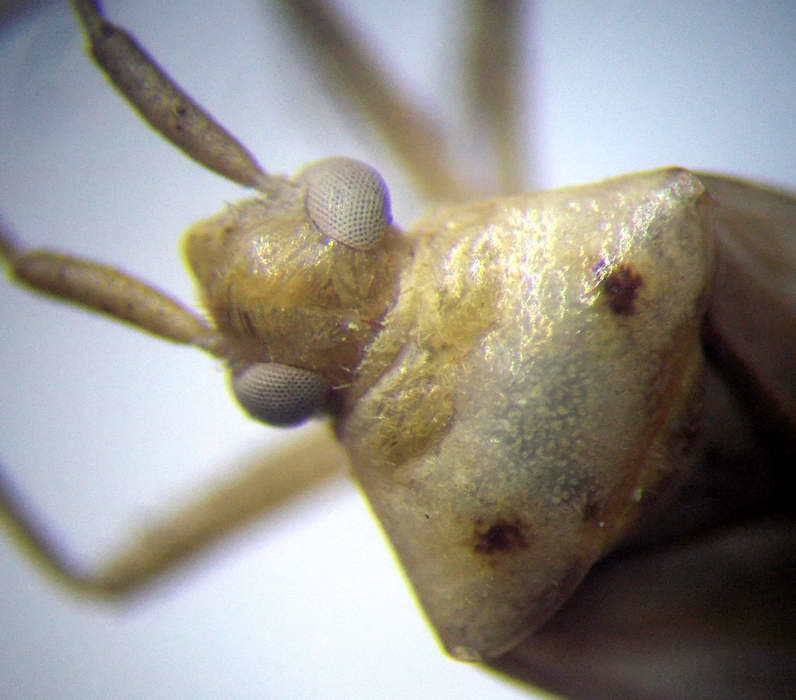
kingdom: Animalia
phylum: Arthropoda
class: Insecta
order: Hemiptera
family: Miridae
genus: Adelphocoris
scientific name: Adelphocoris lineolatus
